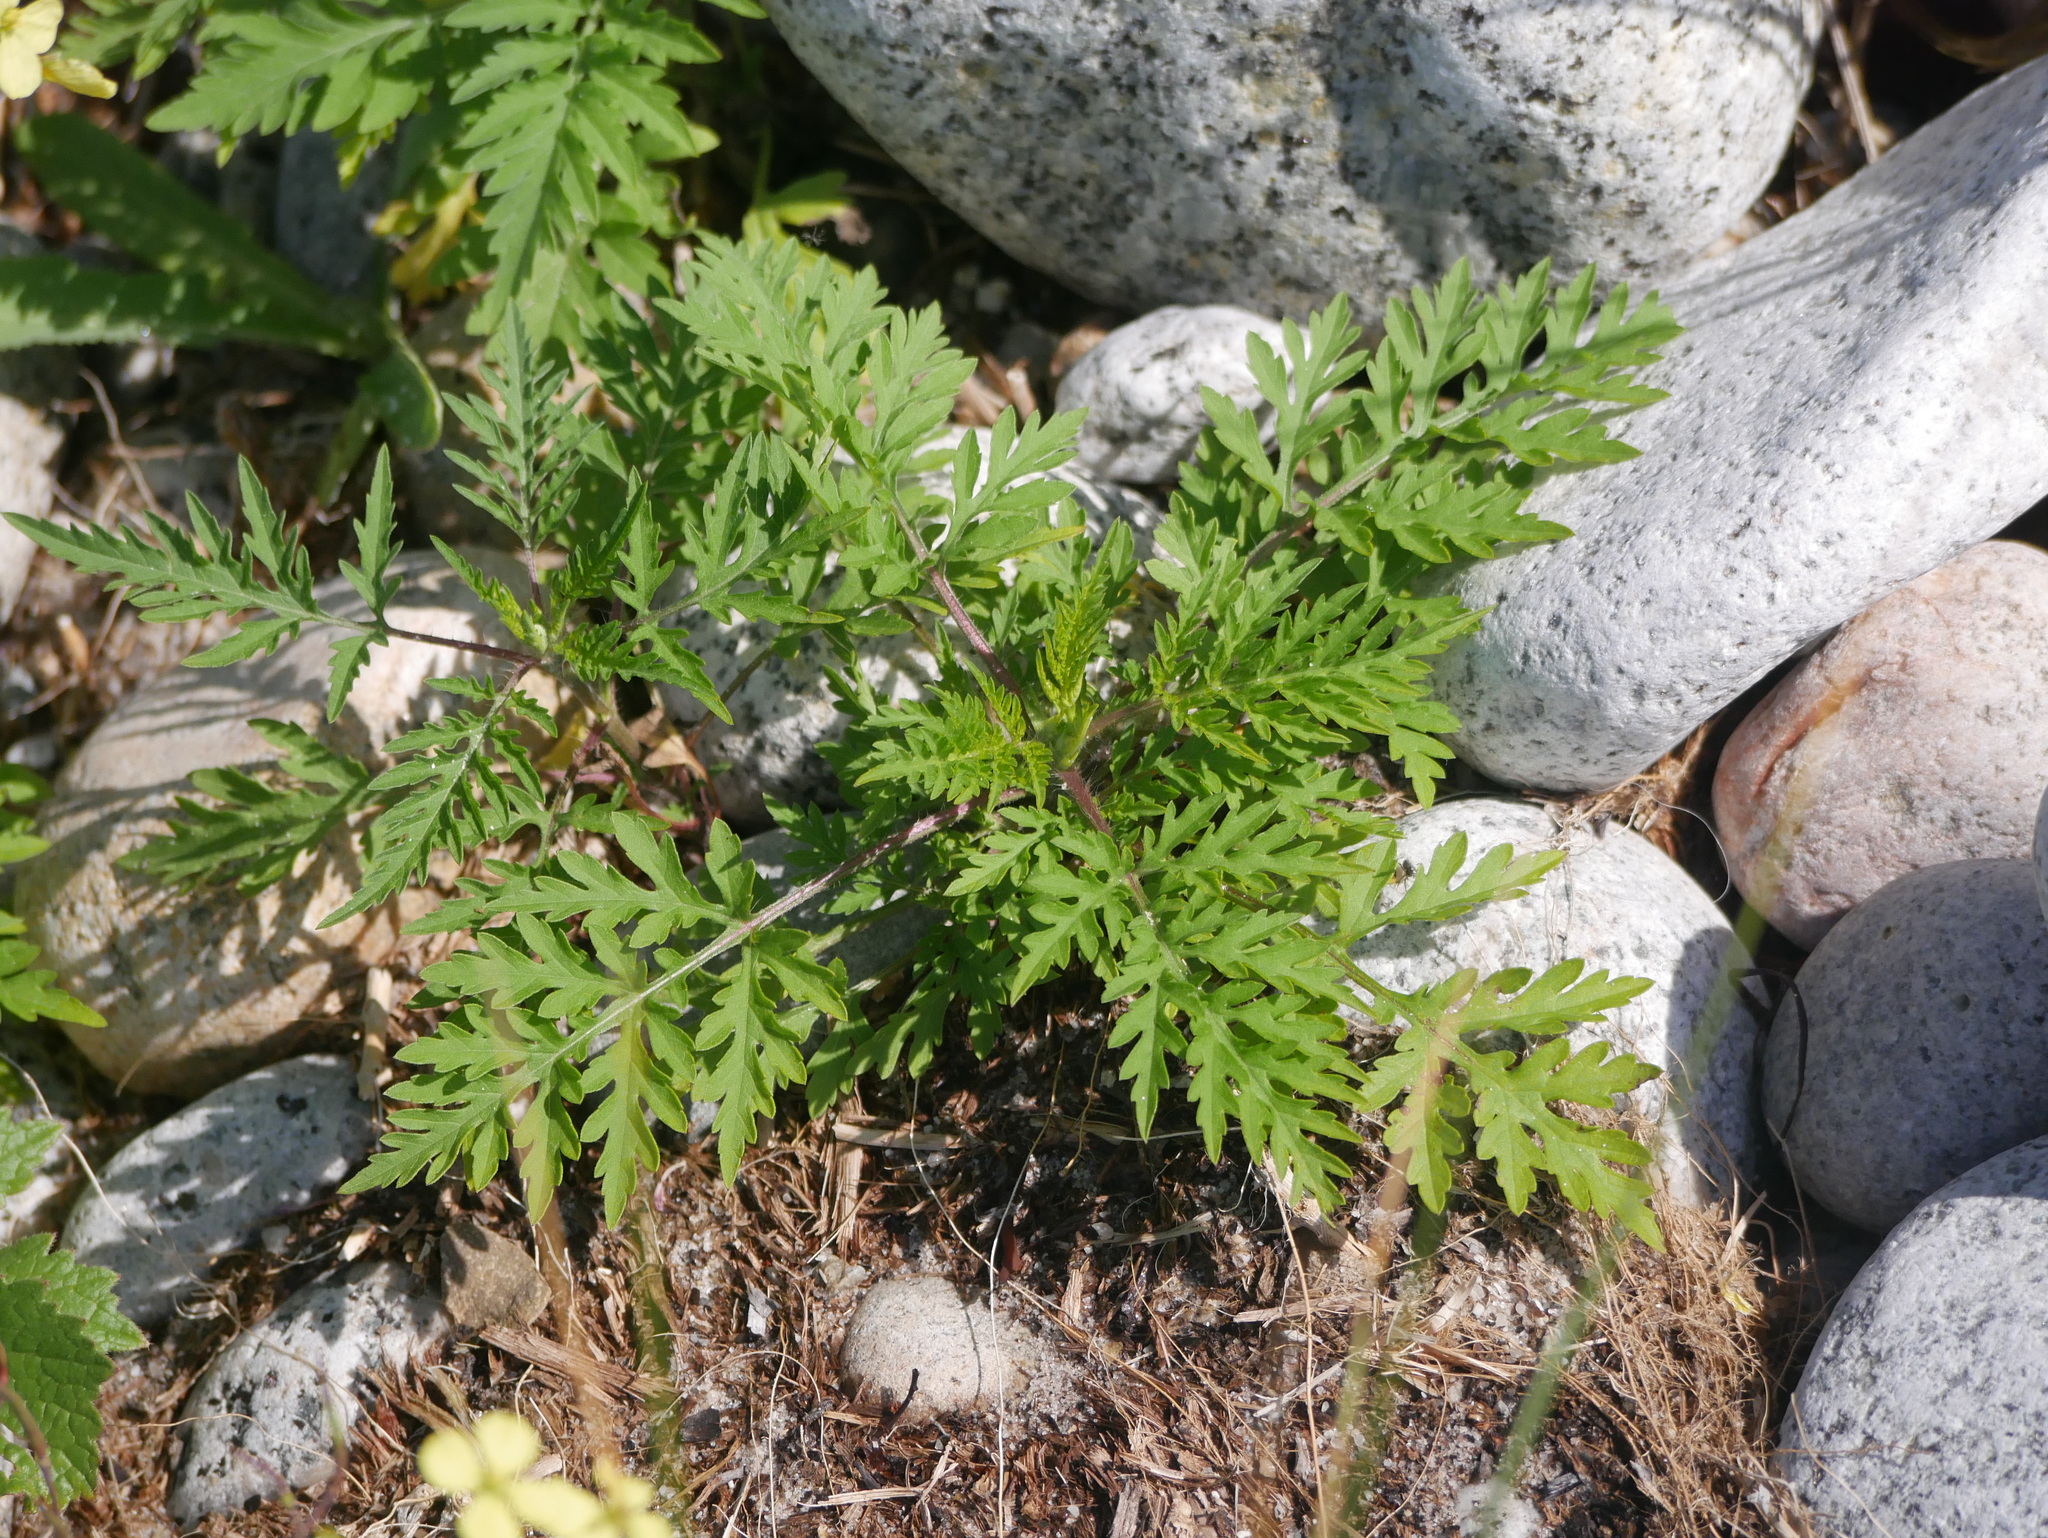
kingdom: Plantae
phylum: Tracheophyta
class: Magnoliopsida
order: Asterales
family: Asteraceae
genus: Ambrosia
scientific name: Ambrosia artemisiifolia
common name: Annual ragweed
